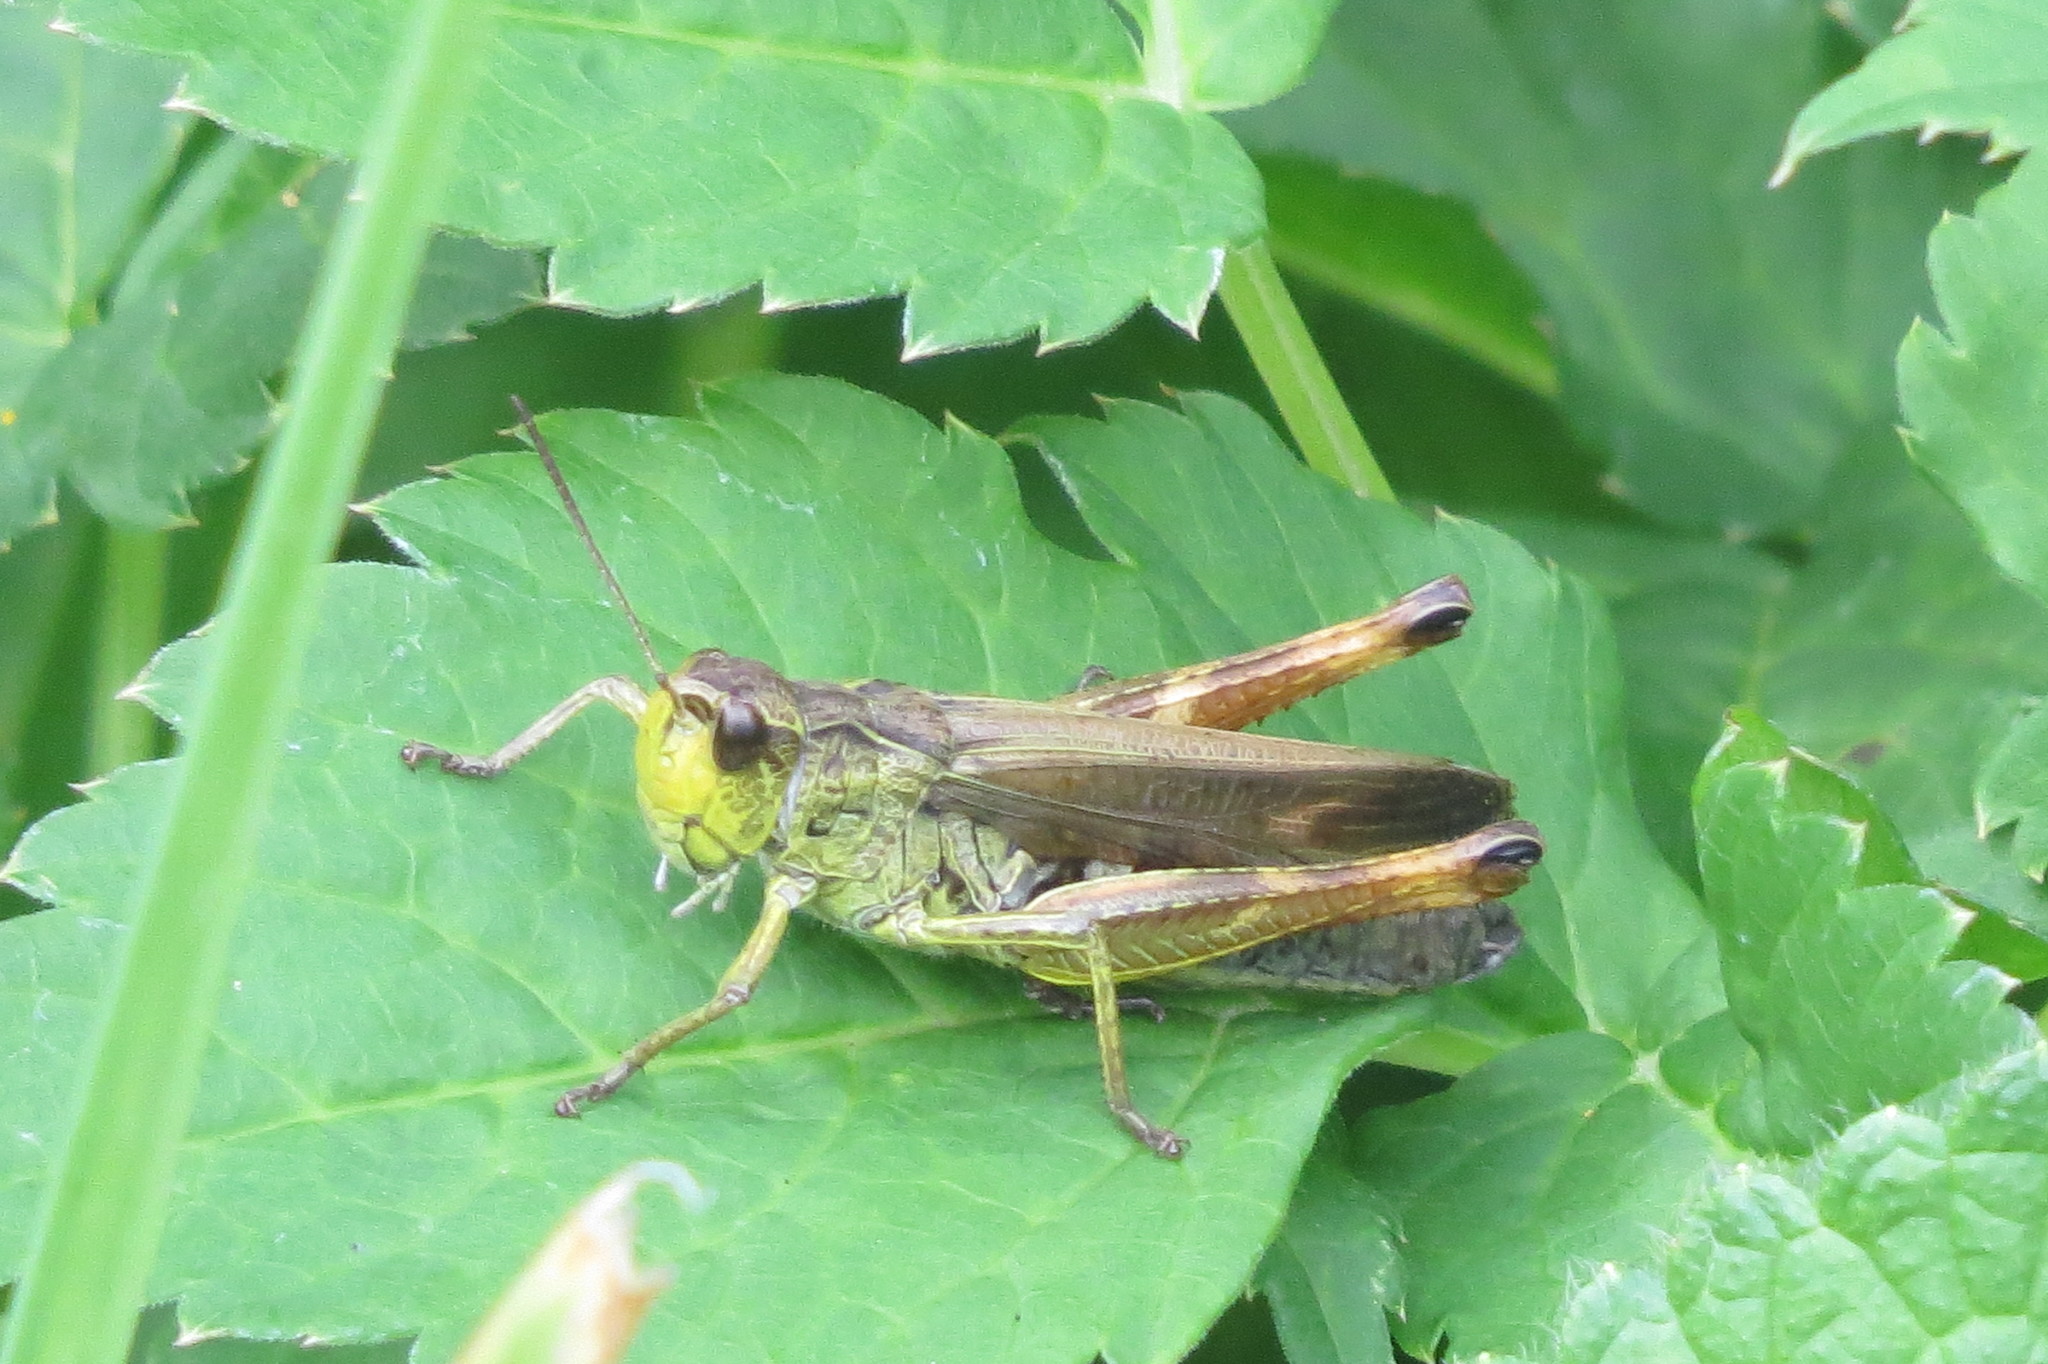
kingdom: Animalia
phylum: Arthropoda
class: Insecta
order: Orthoptera
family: Acrididae
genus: Stauroderus
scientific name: Stauroderus scalaris
